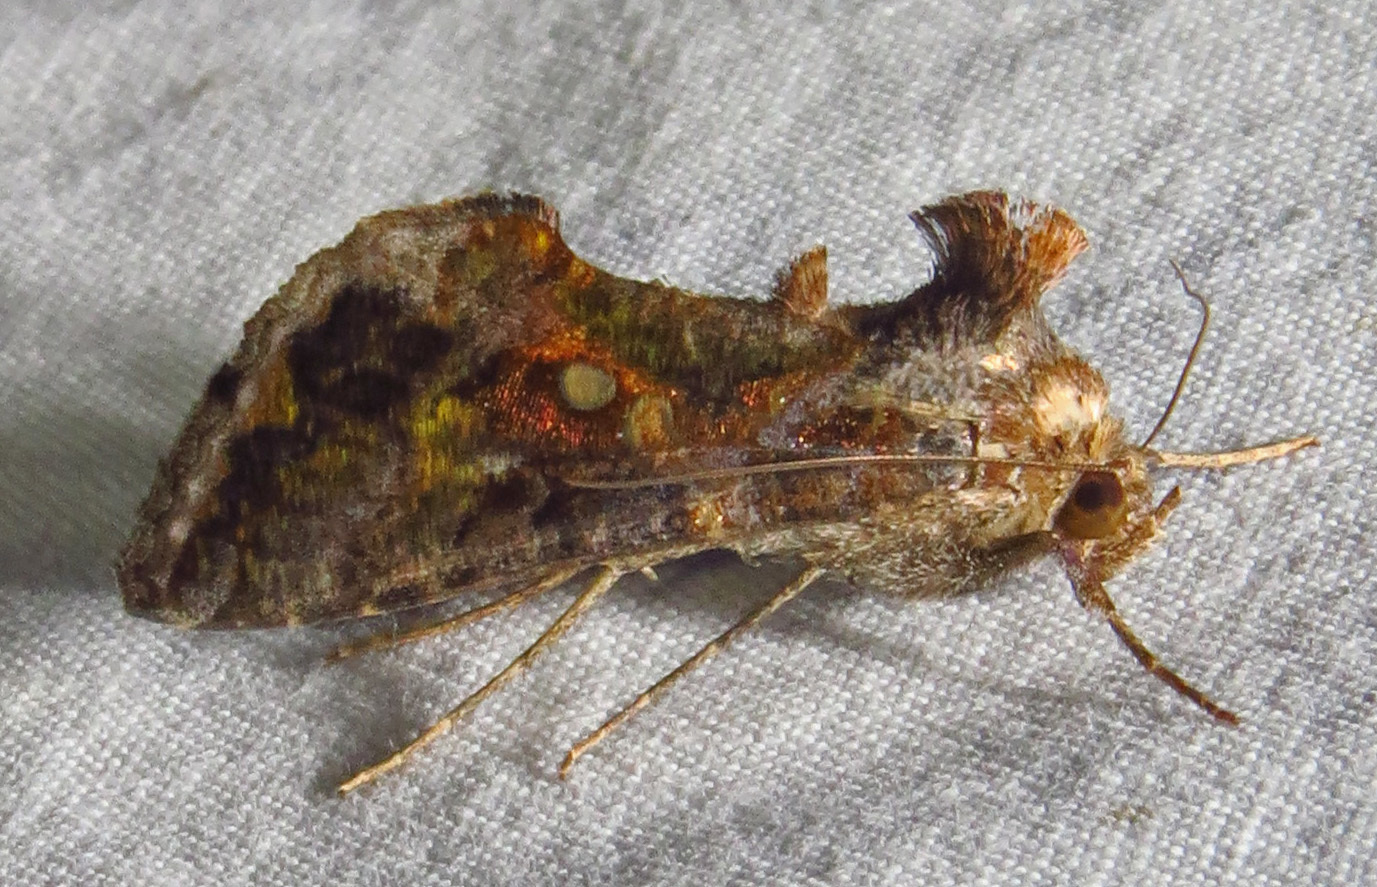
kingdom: Animalia
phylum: Arthropoda
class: Insecta
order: Lepidoptera
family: Noctuidae
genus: Chrysodeixis
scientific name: Chrysodeixis includens
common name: Cutworm moth
